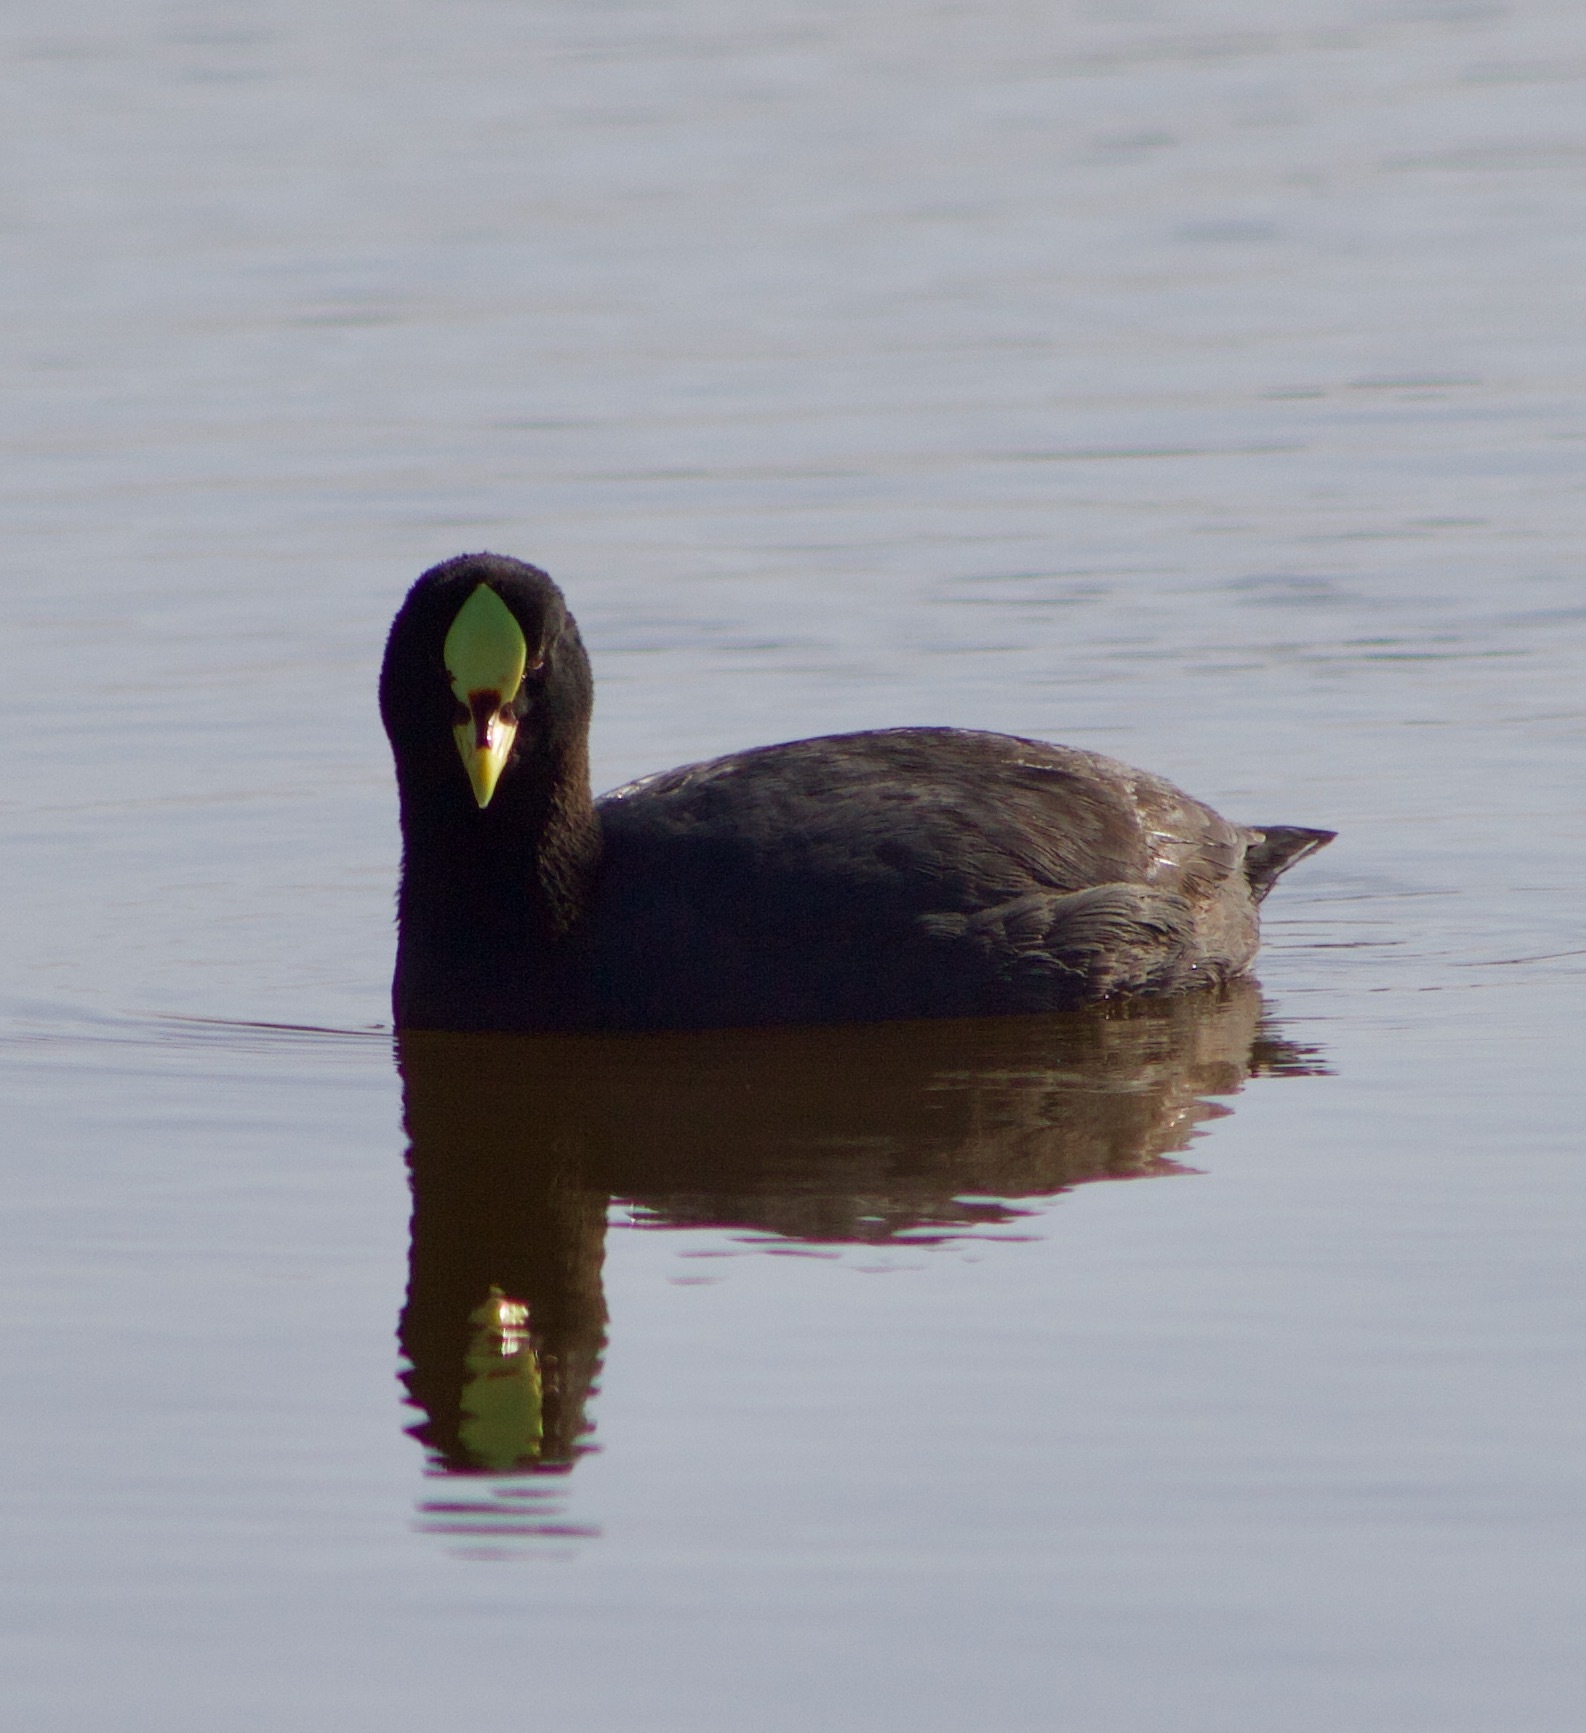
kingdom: Animalia
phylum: Chordata
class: Aves
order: Gruiformes
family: Rallidae
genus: Fulica
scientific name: Fulica armillata
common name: Red-gartered coot
